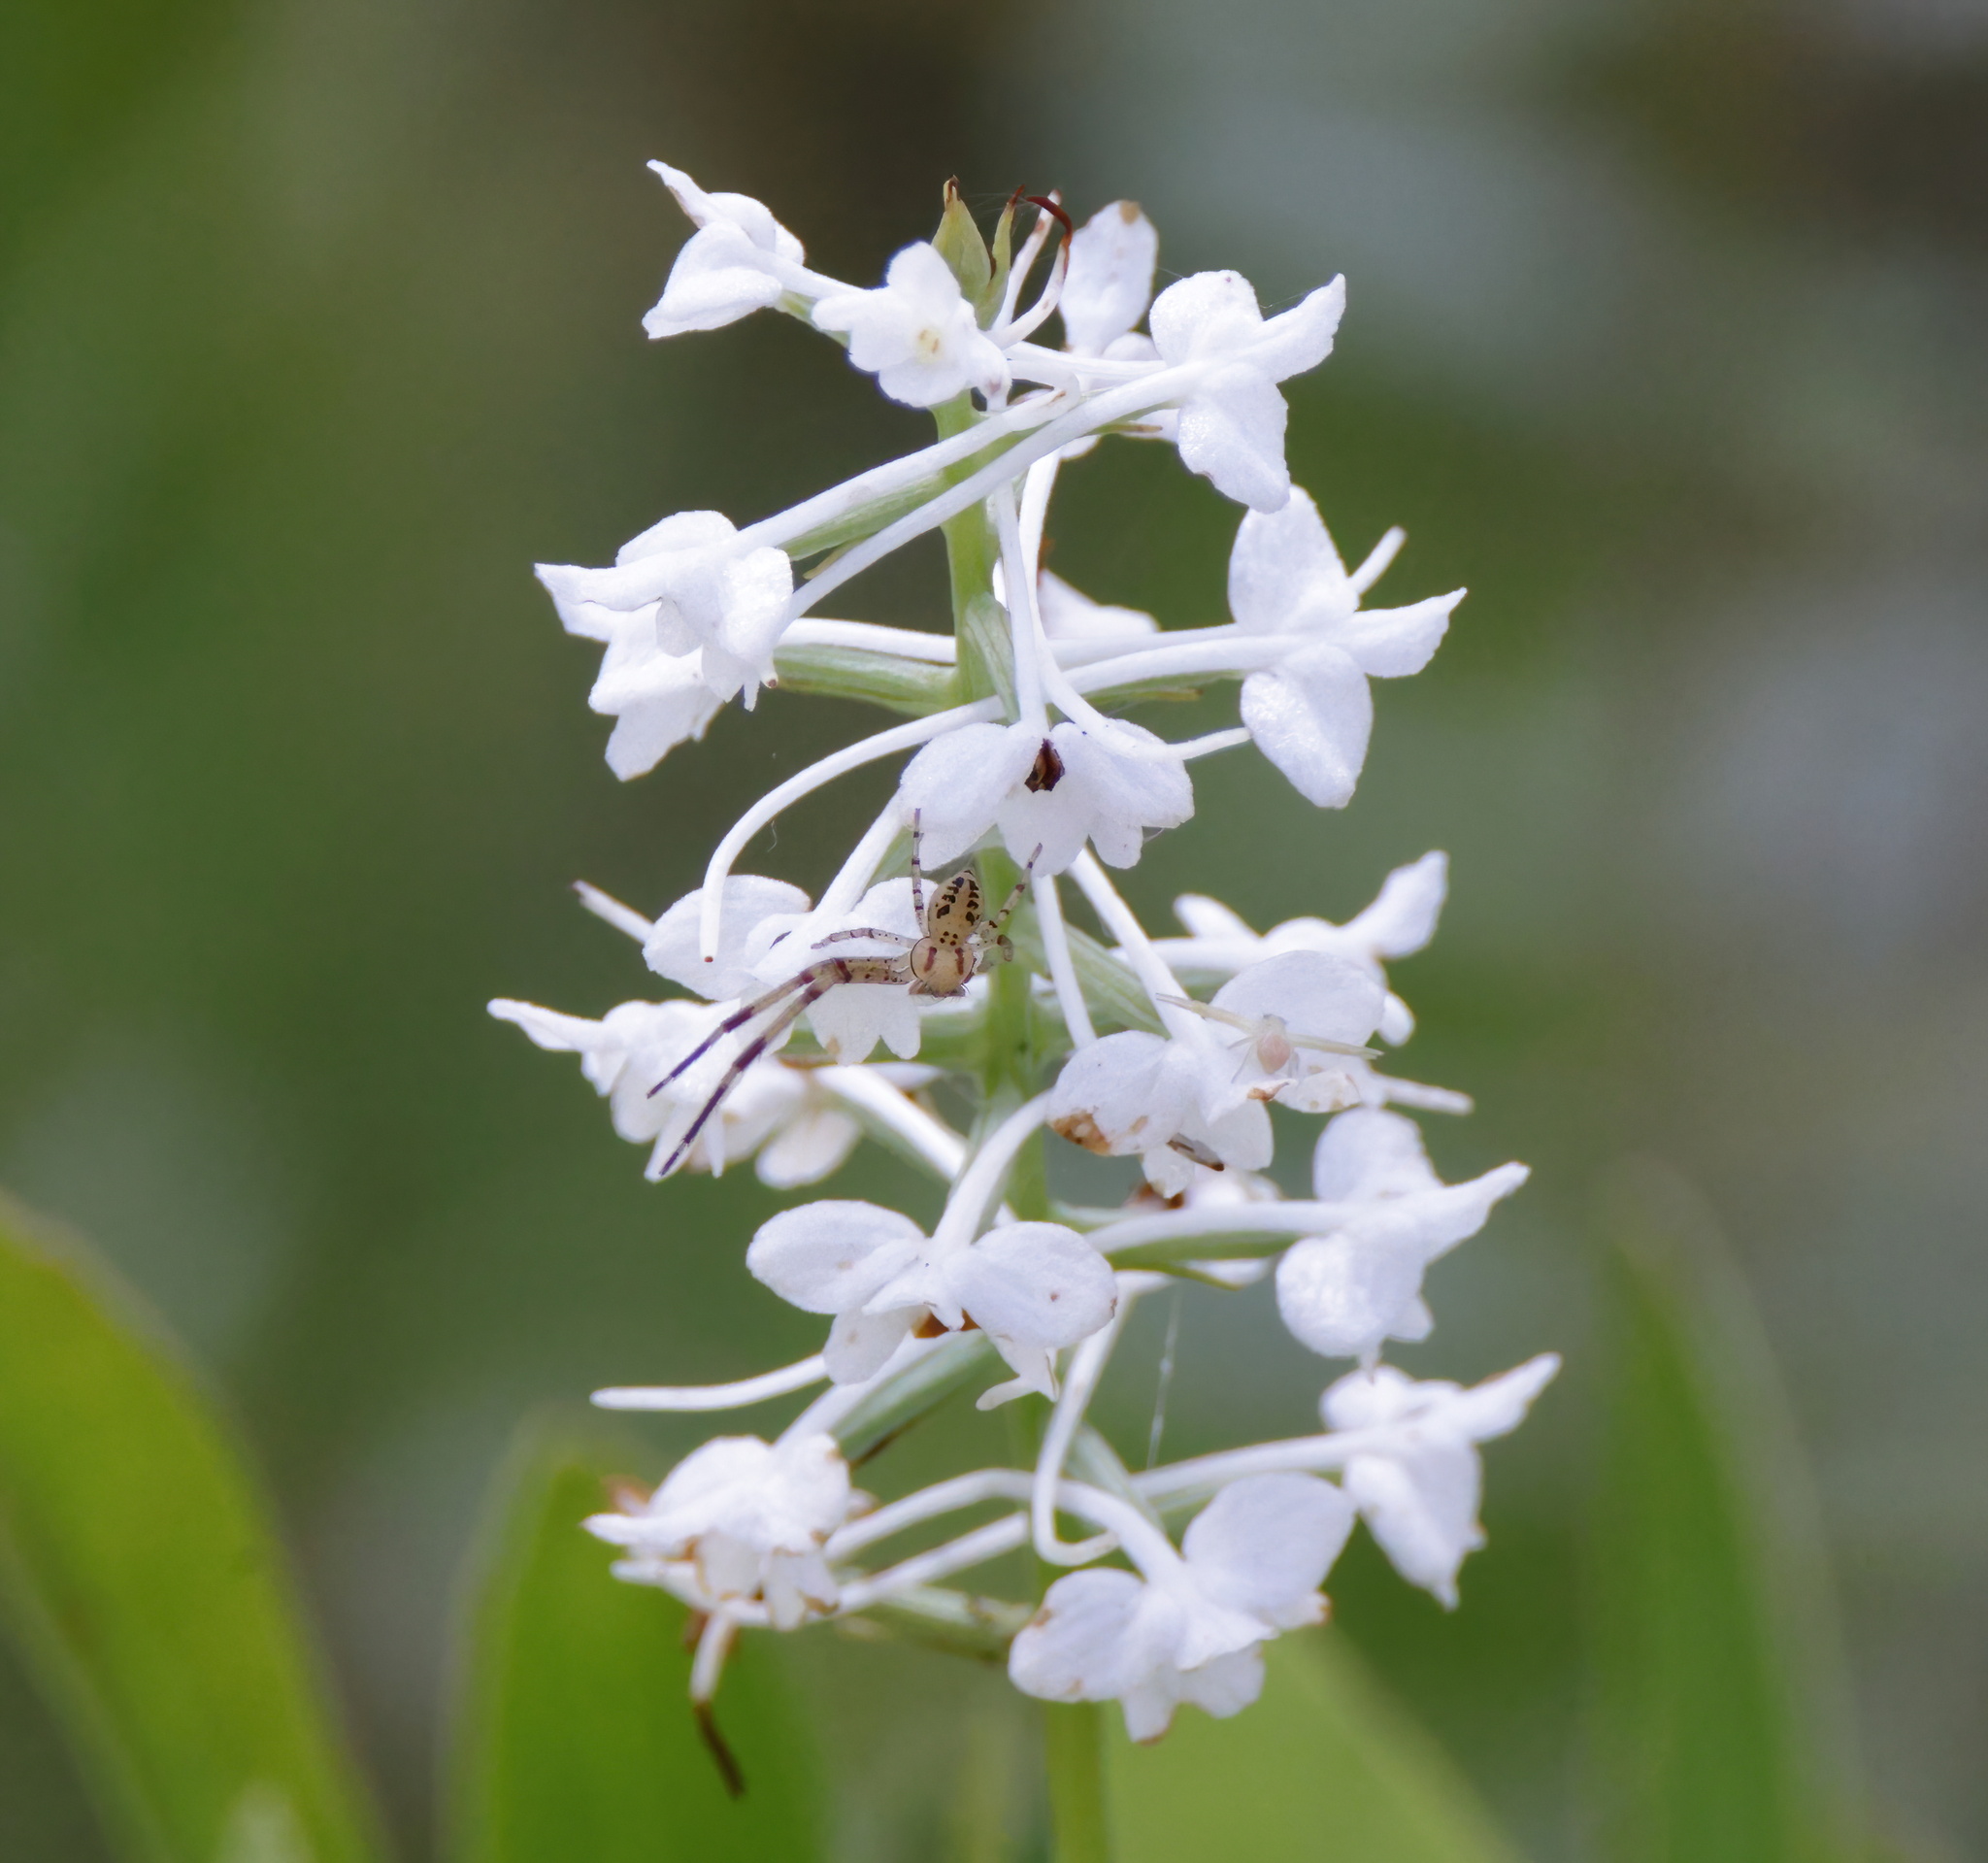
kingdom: Plantae
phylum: Tracheophyta
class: Liliopsida
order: Asparagales
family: Orchidaceae
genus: Platanthera
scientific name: Platanthera nivea
